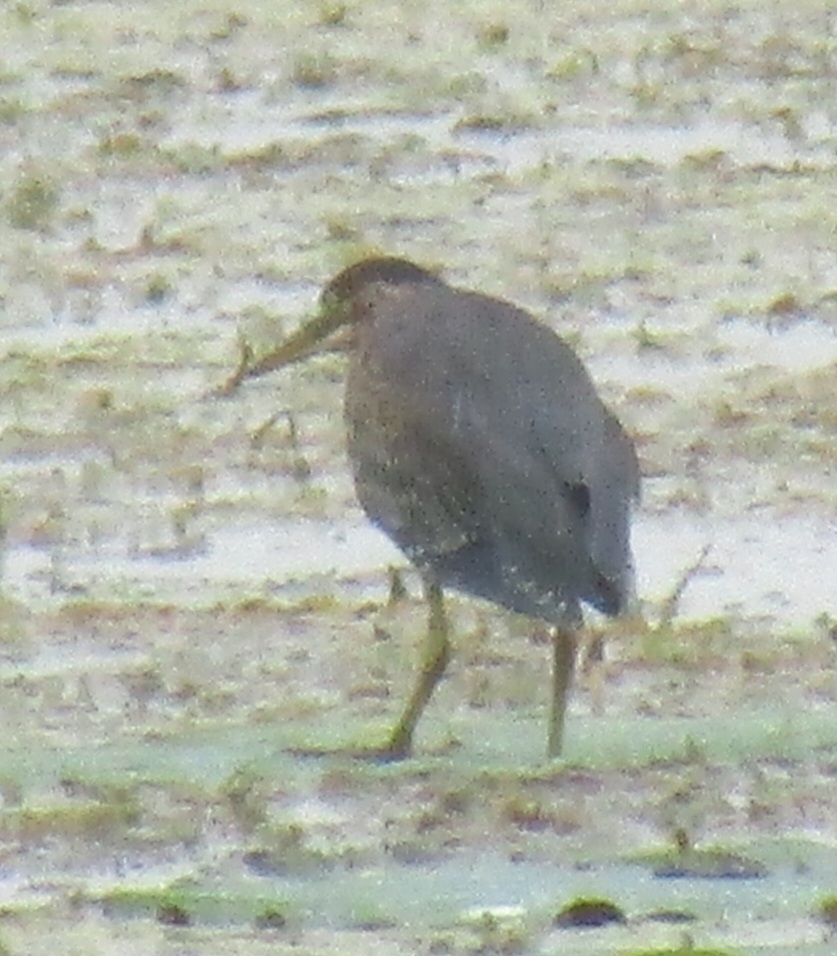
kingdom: Animalia
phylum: Chordata
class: Aves
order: Pelecaniformes
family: Ardeidae
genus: Butorides
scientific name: Butorides virescens
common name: Green heron
